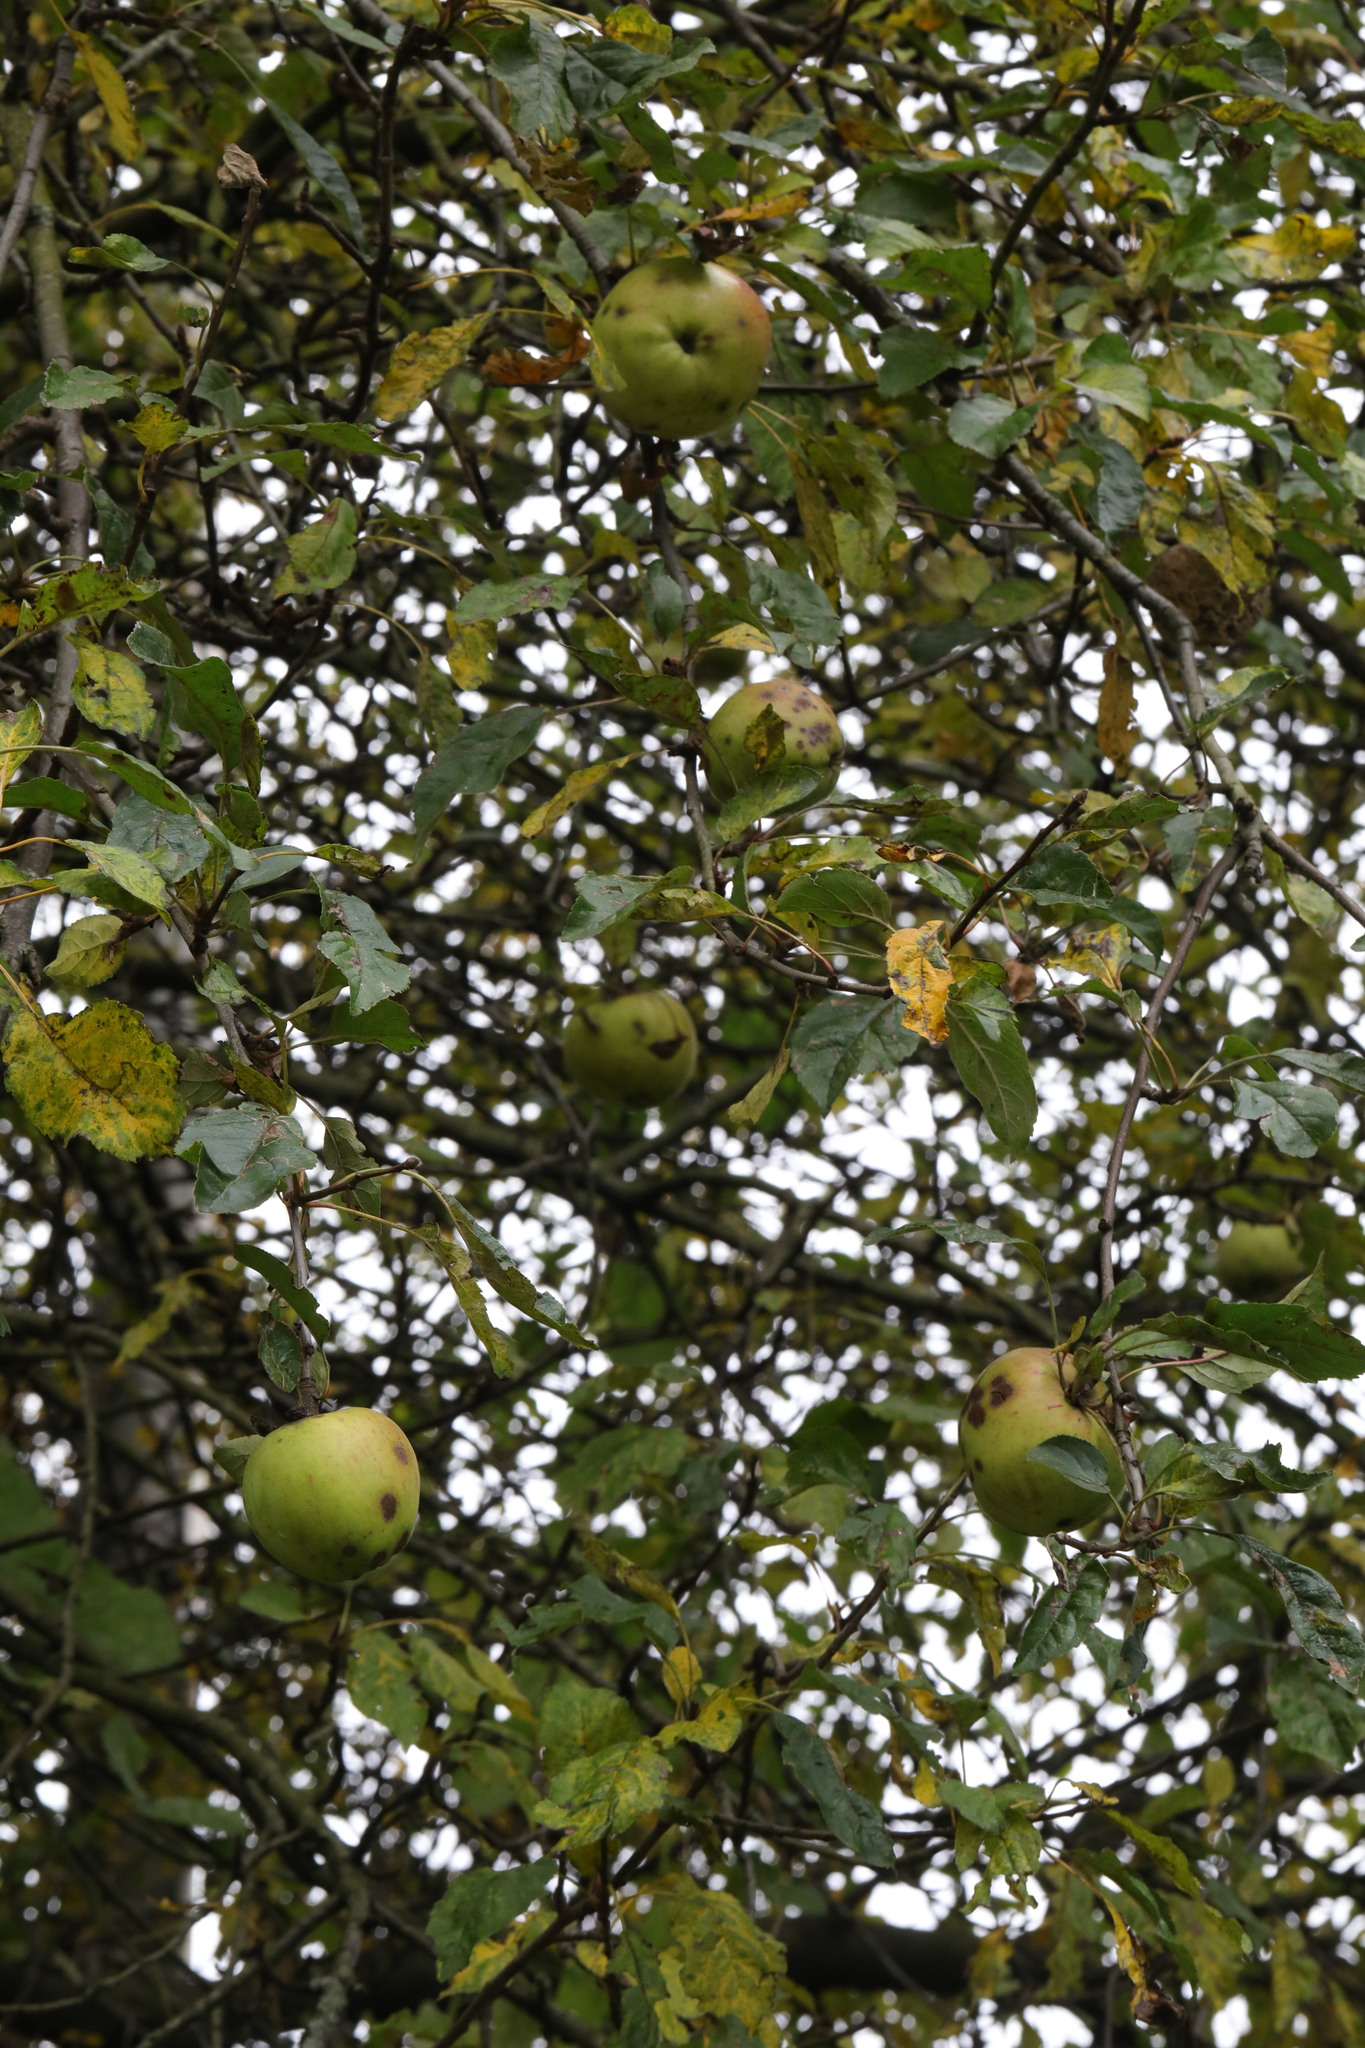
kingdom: Plantae
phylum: Tracheophyta
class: Magnoliopsida
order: Rosales
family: Rosaceae
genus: Malus
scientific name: Malus domestica
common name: Apple
